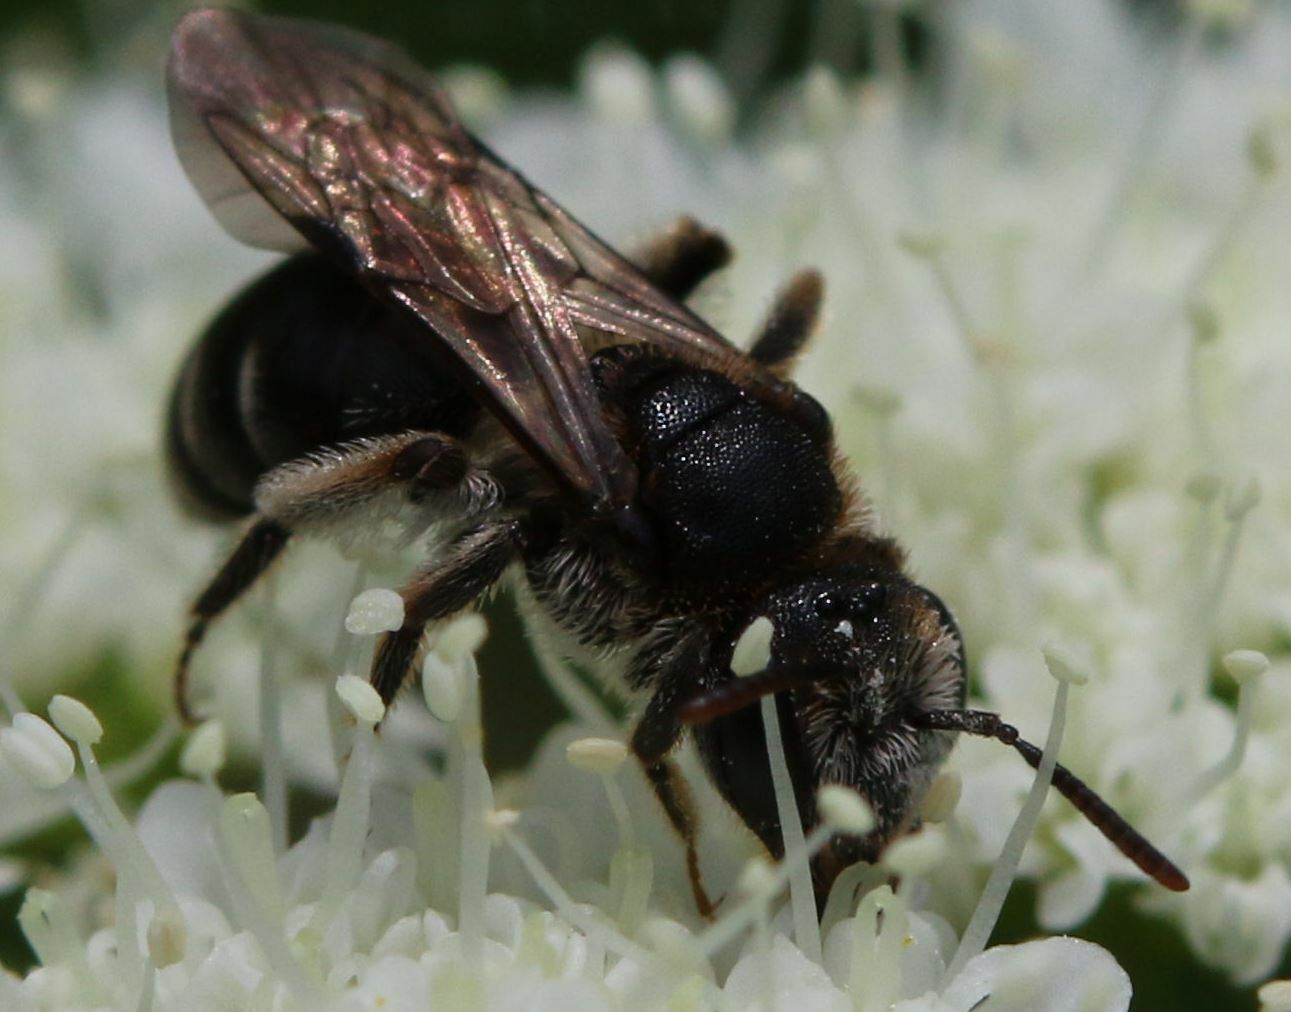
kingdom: Animalia
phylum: Arthropoda
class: Insecta
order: Hymenoptera
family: Andrenidae
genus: Andrena
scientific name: Andrena colletiformis
